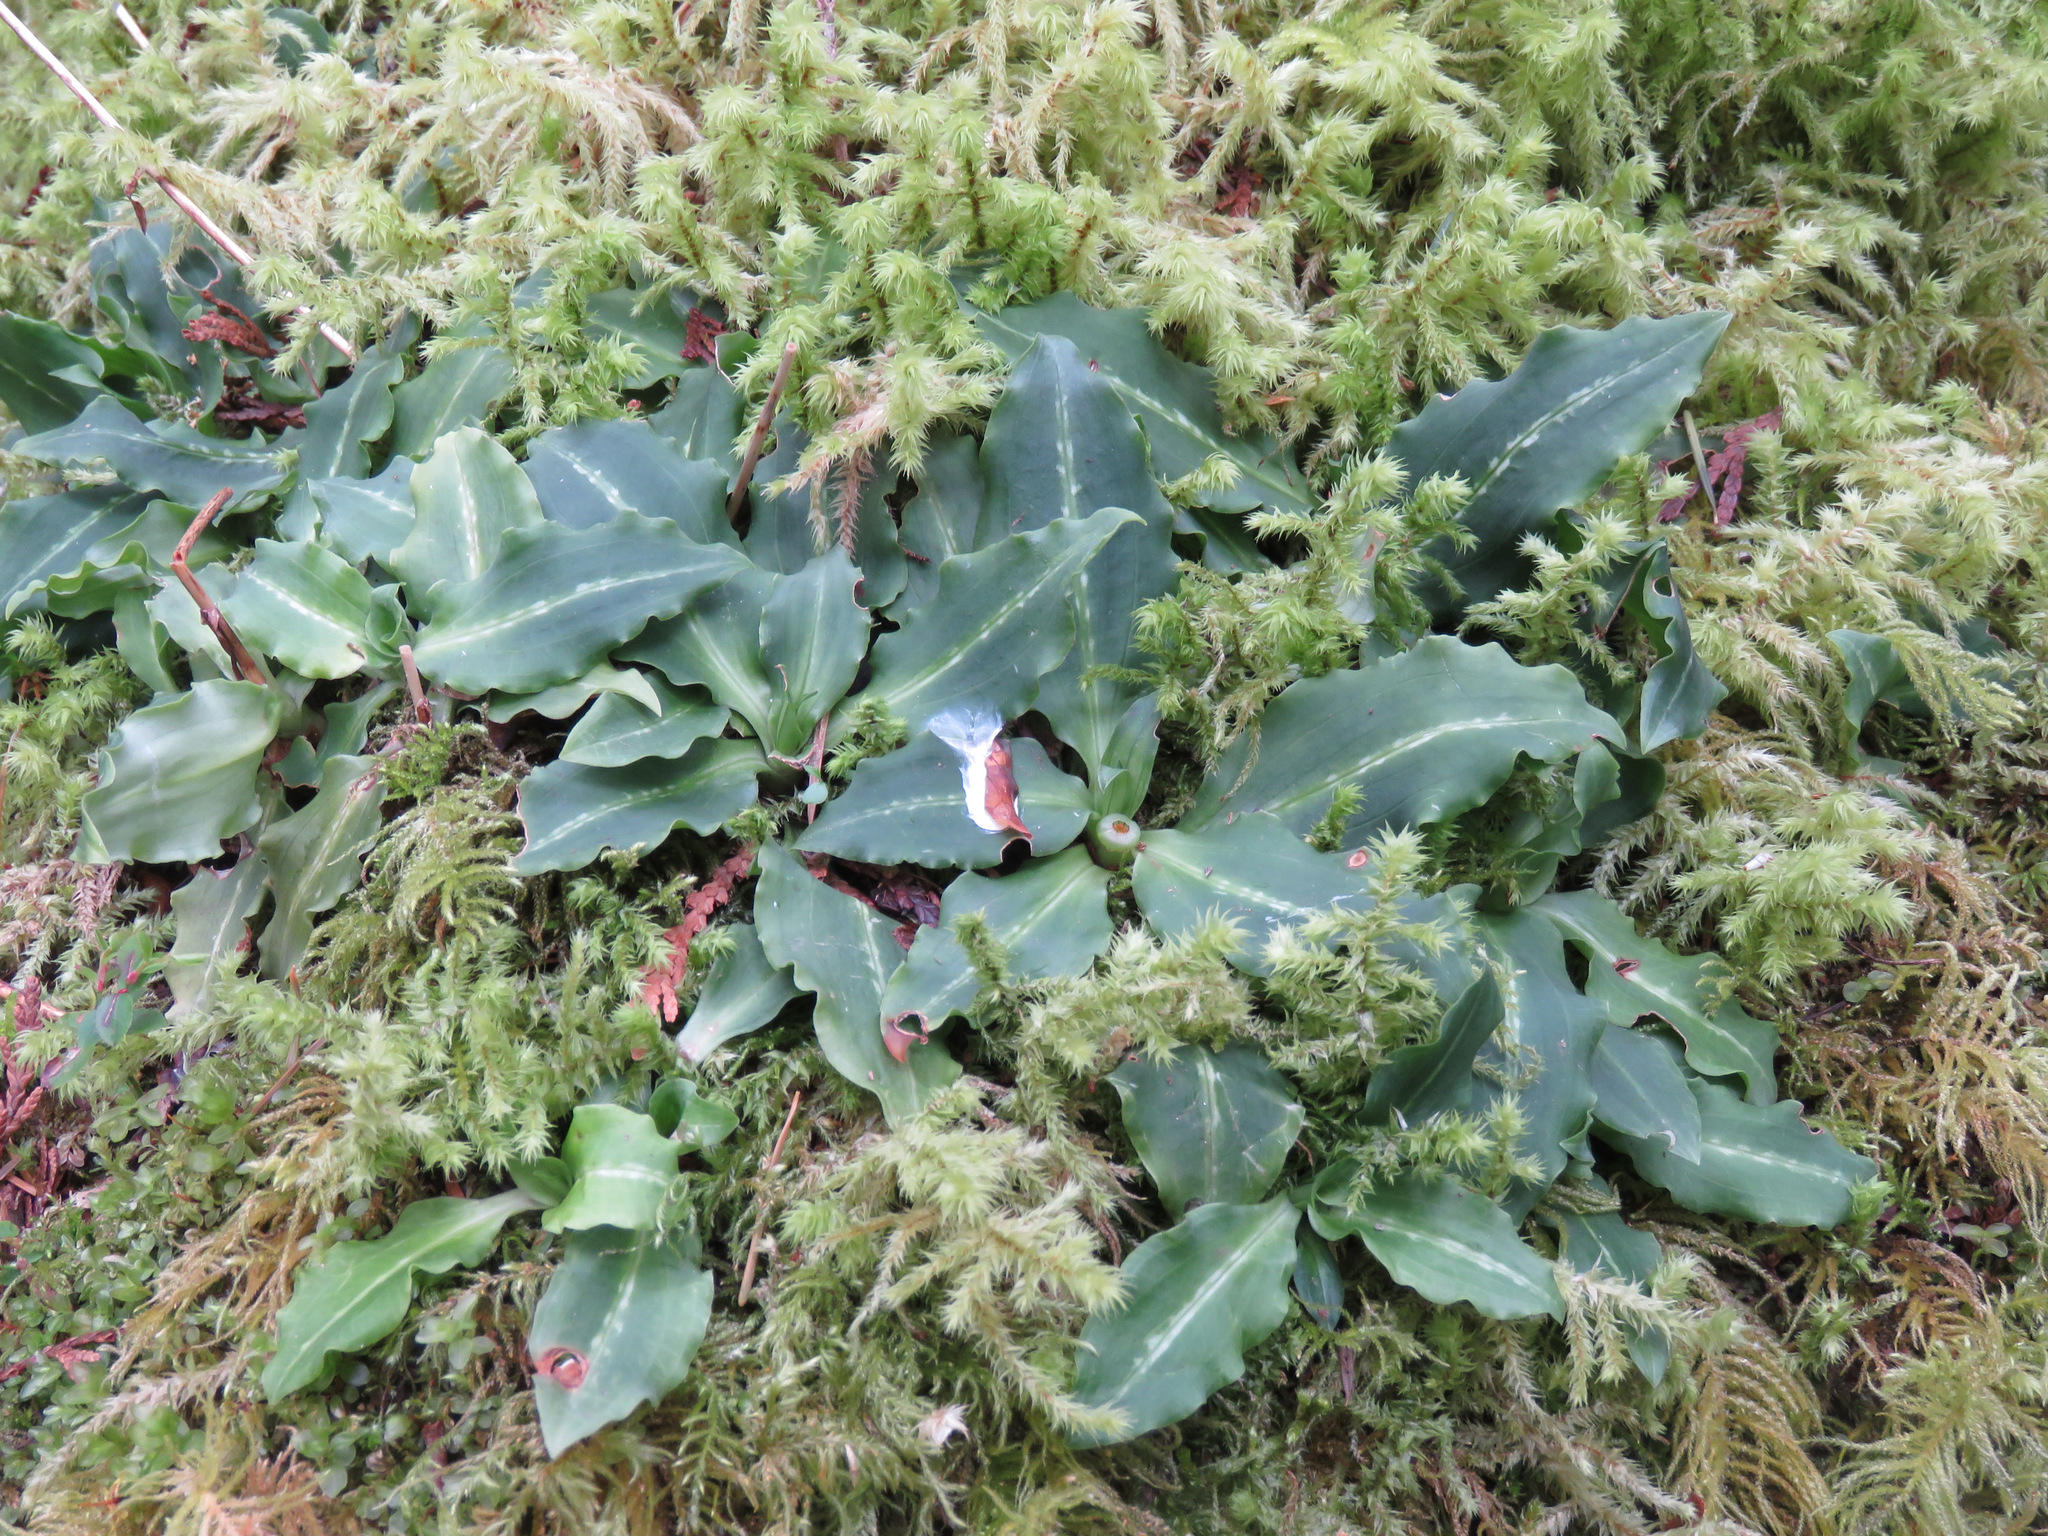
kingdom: Plantae
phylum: Tracheophyta
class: Liliopsida
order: Asparagales
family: Orchidaceae
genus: Goodyera
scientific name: Goodyera oblongifolia
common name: Giant rattlesnake-plantain
